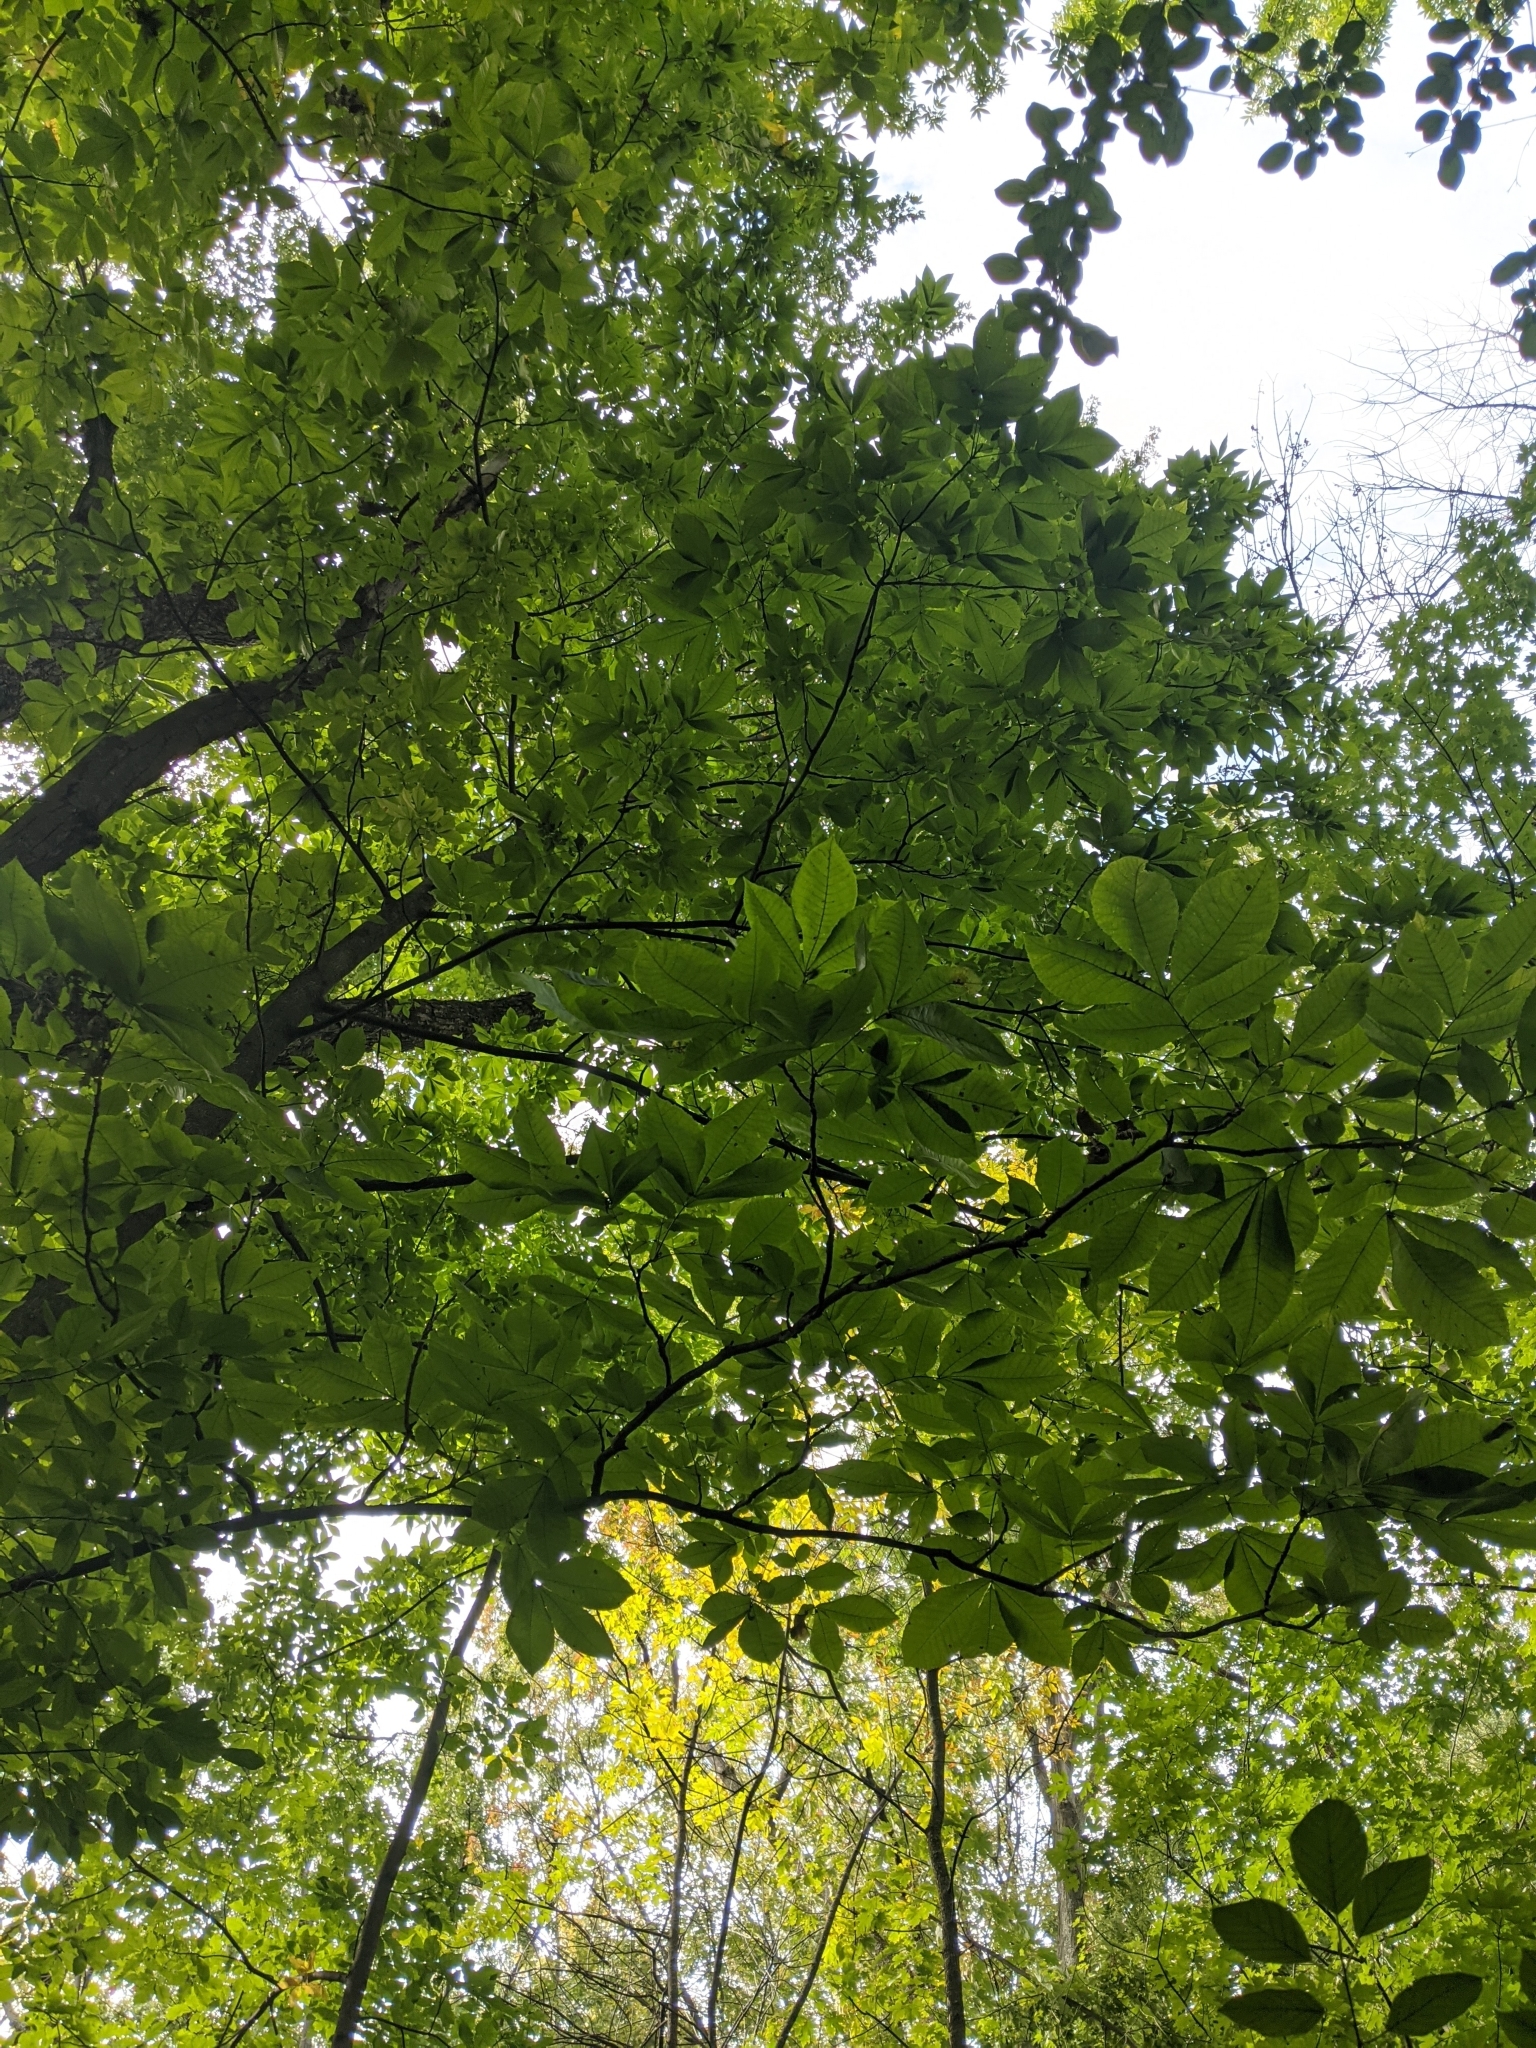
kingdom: Plantae
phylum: Tracheophyta
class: Magnoliopsida
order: Fagales
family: Juglandaceae
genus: Carya
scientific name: Carya ovata
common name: Shagbark hickory
